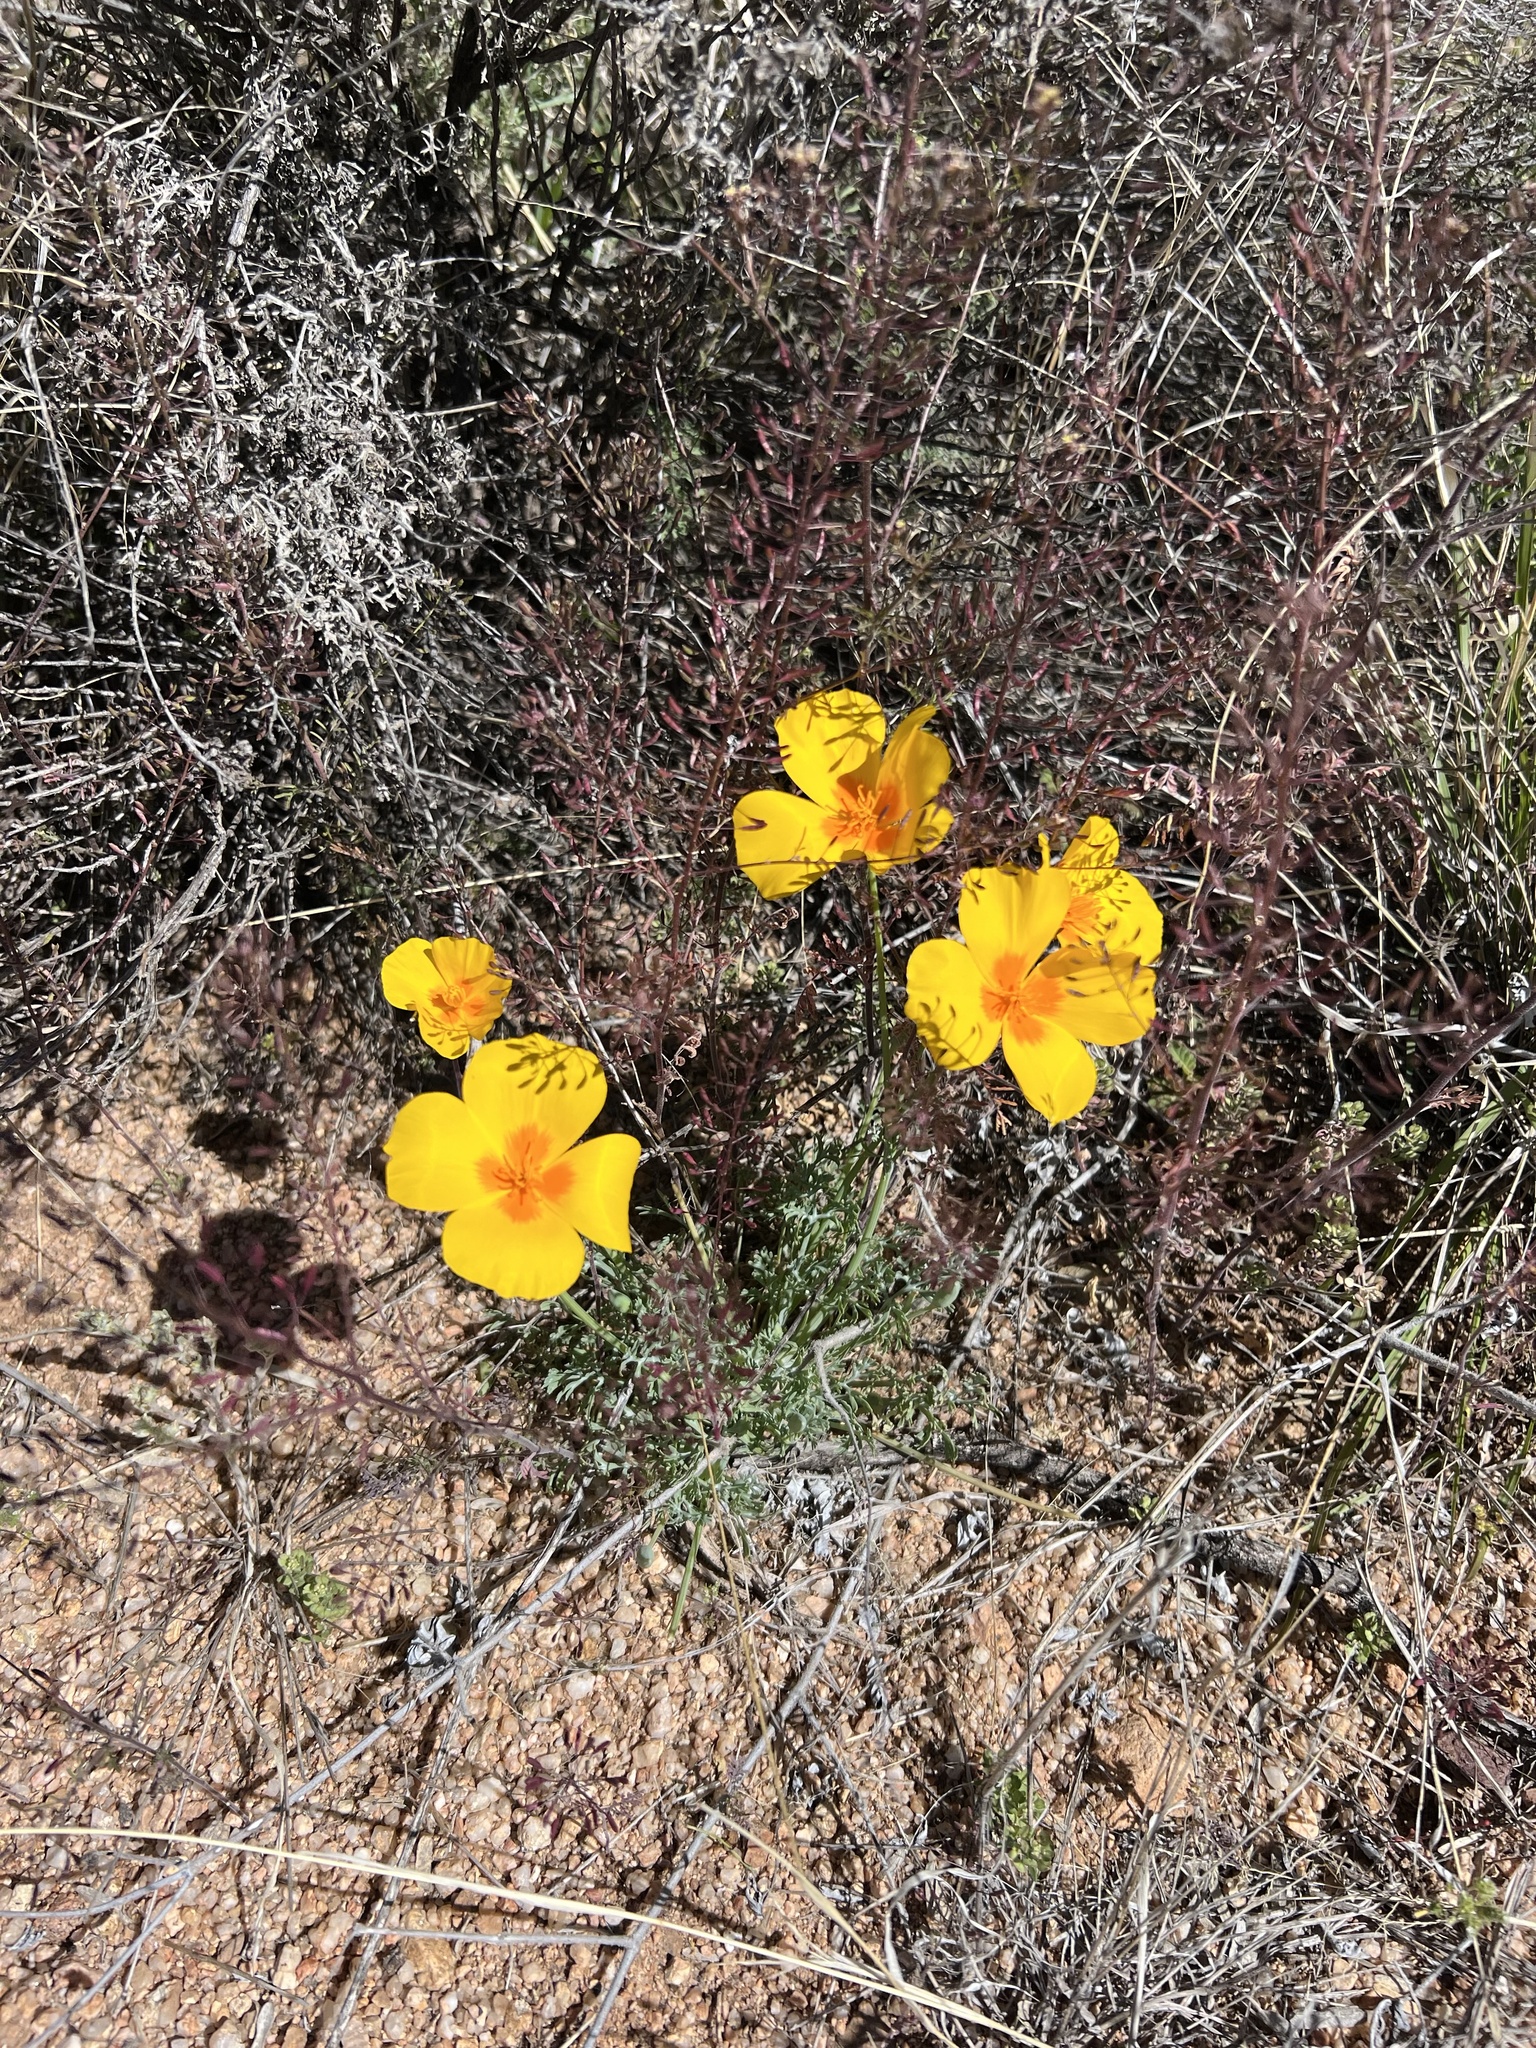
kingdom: Plantae
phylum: Tracheophyta
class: Magnoliopsida
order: Ranunculales
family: Papaveraceae
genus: Eschscholzia
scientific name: Eschscholzia californica
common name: California poppy
